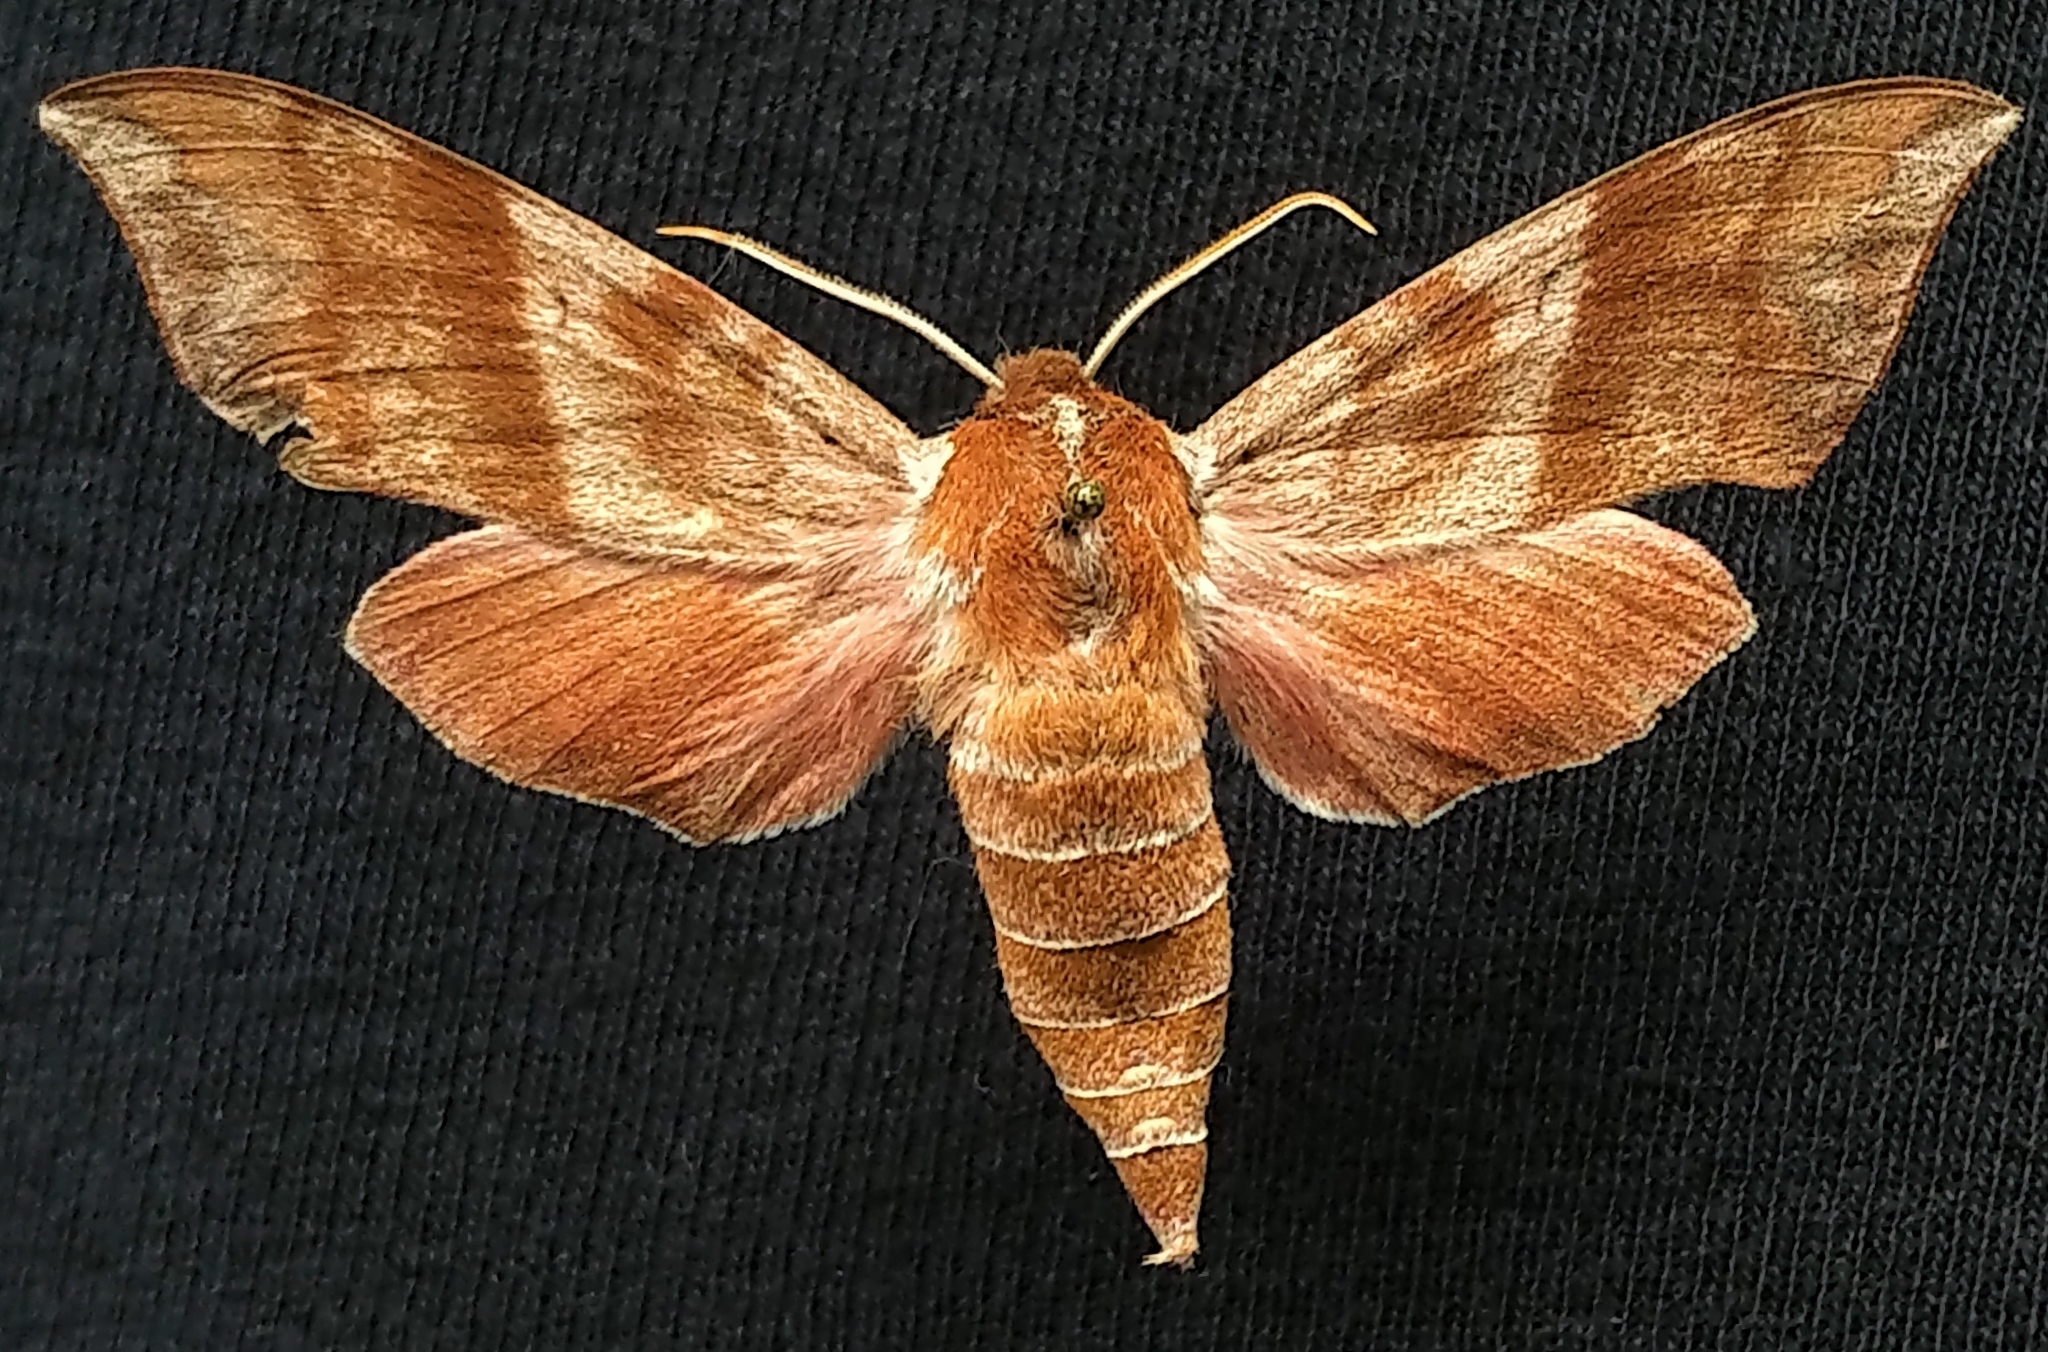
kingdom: Animalia
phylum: Arthropoda
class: Insecta
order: Lepidoptera
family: Sphingidae
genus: Darapsa
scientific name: Darapsa choerilus
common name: Azalea sphinx
